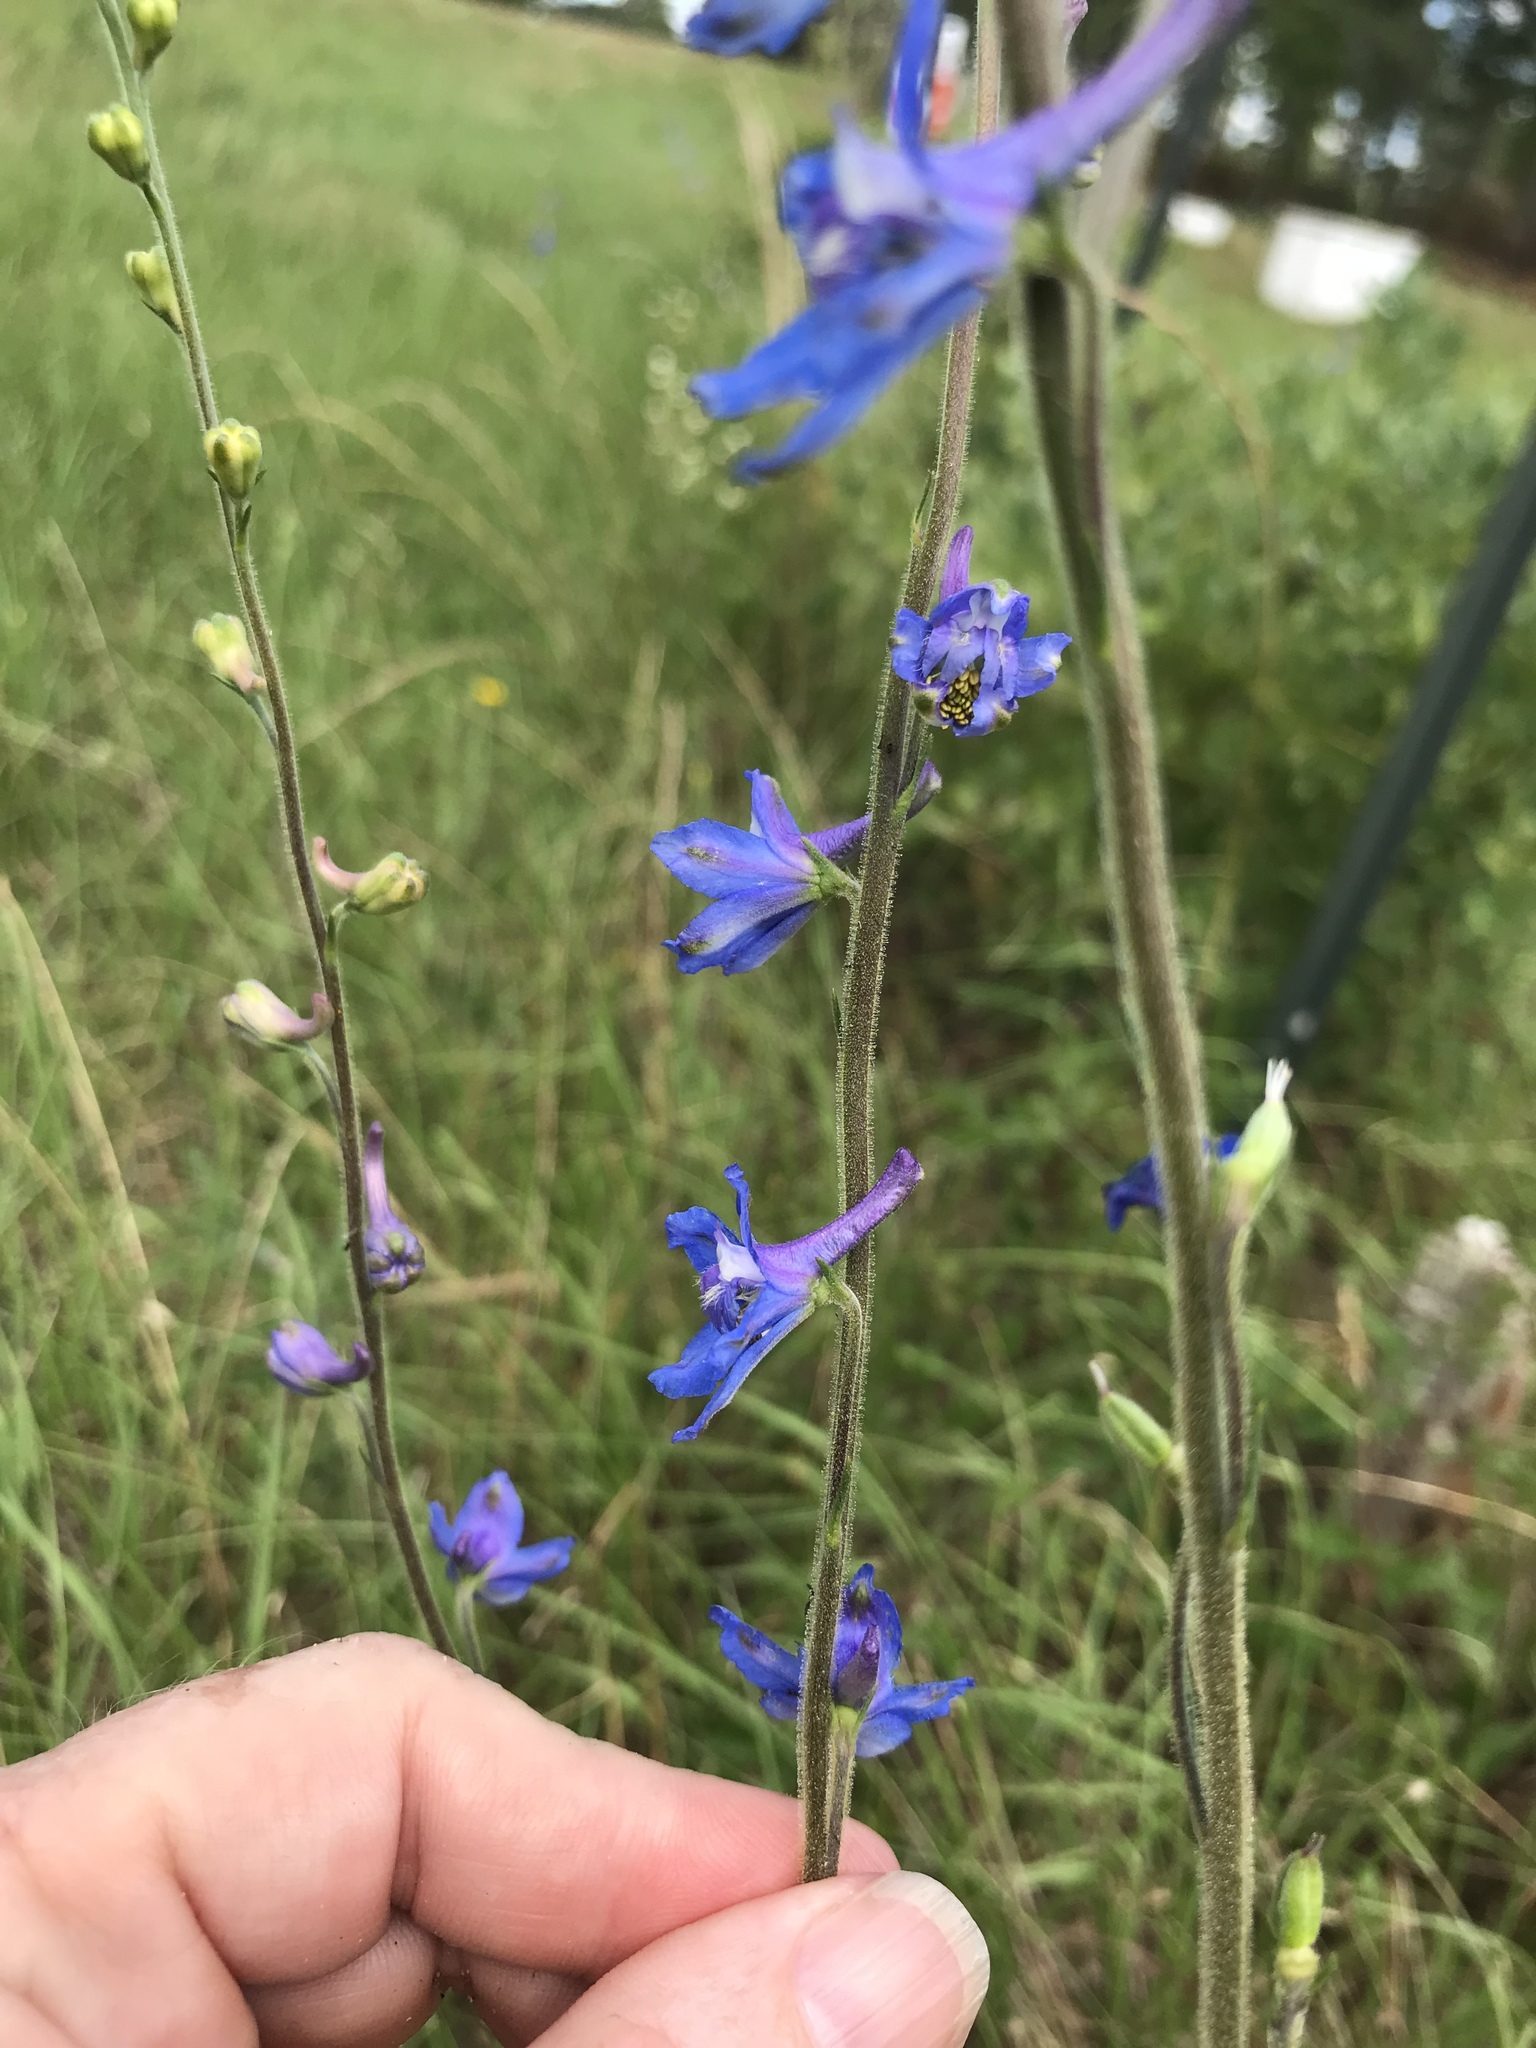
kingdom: Plantae
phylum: Tracheophyta
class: Magnoliopsida
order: Ranunculales
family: Ranunculaceae
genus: Delphinium
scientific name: Delphinium carolinianum
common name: Carolina larkspur
